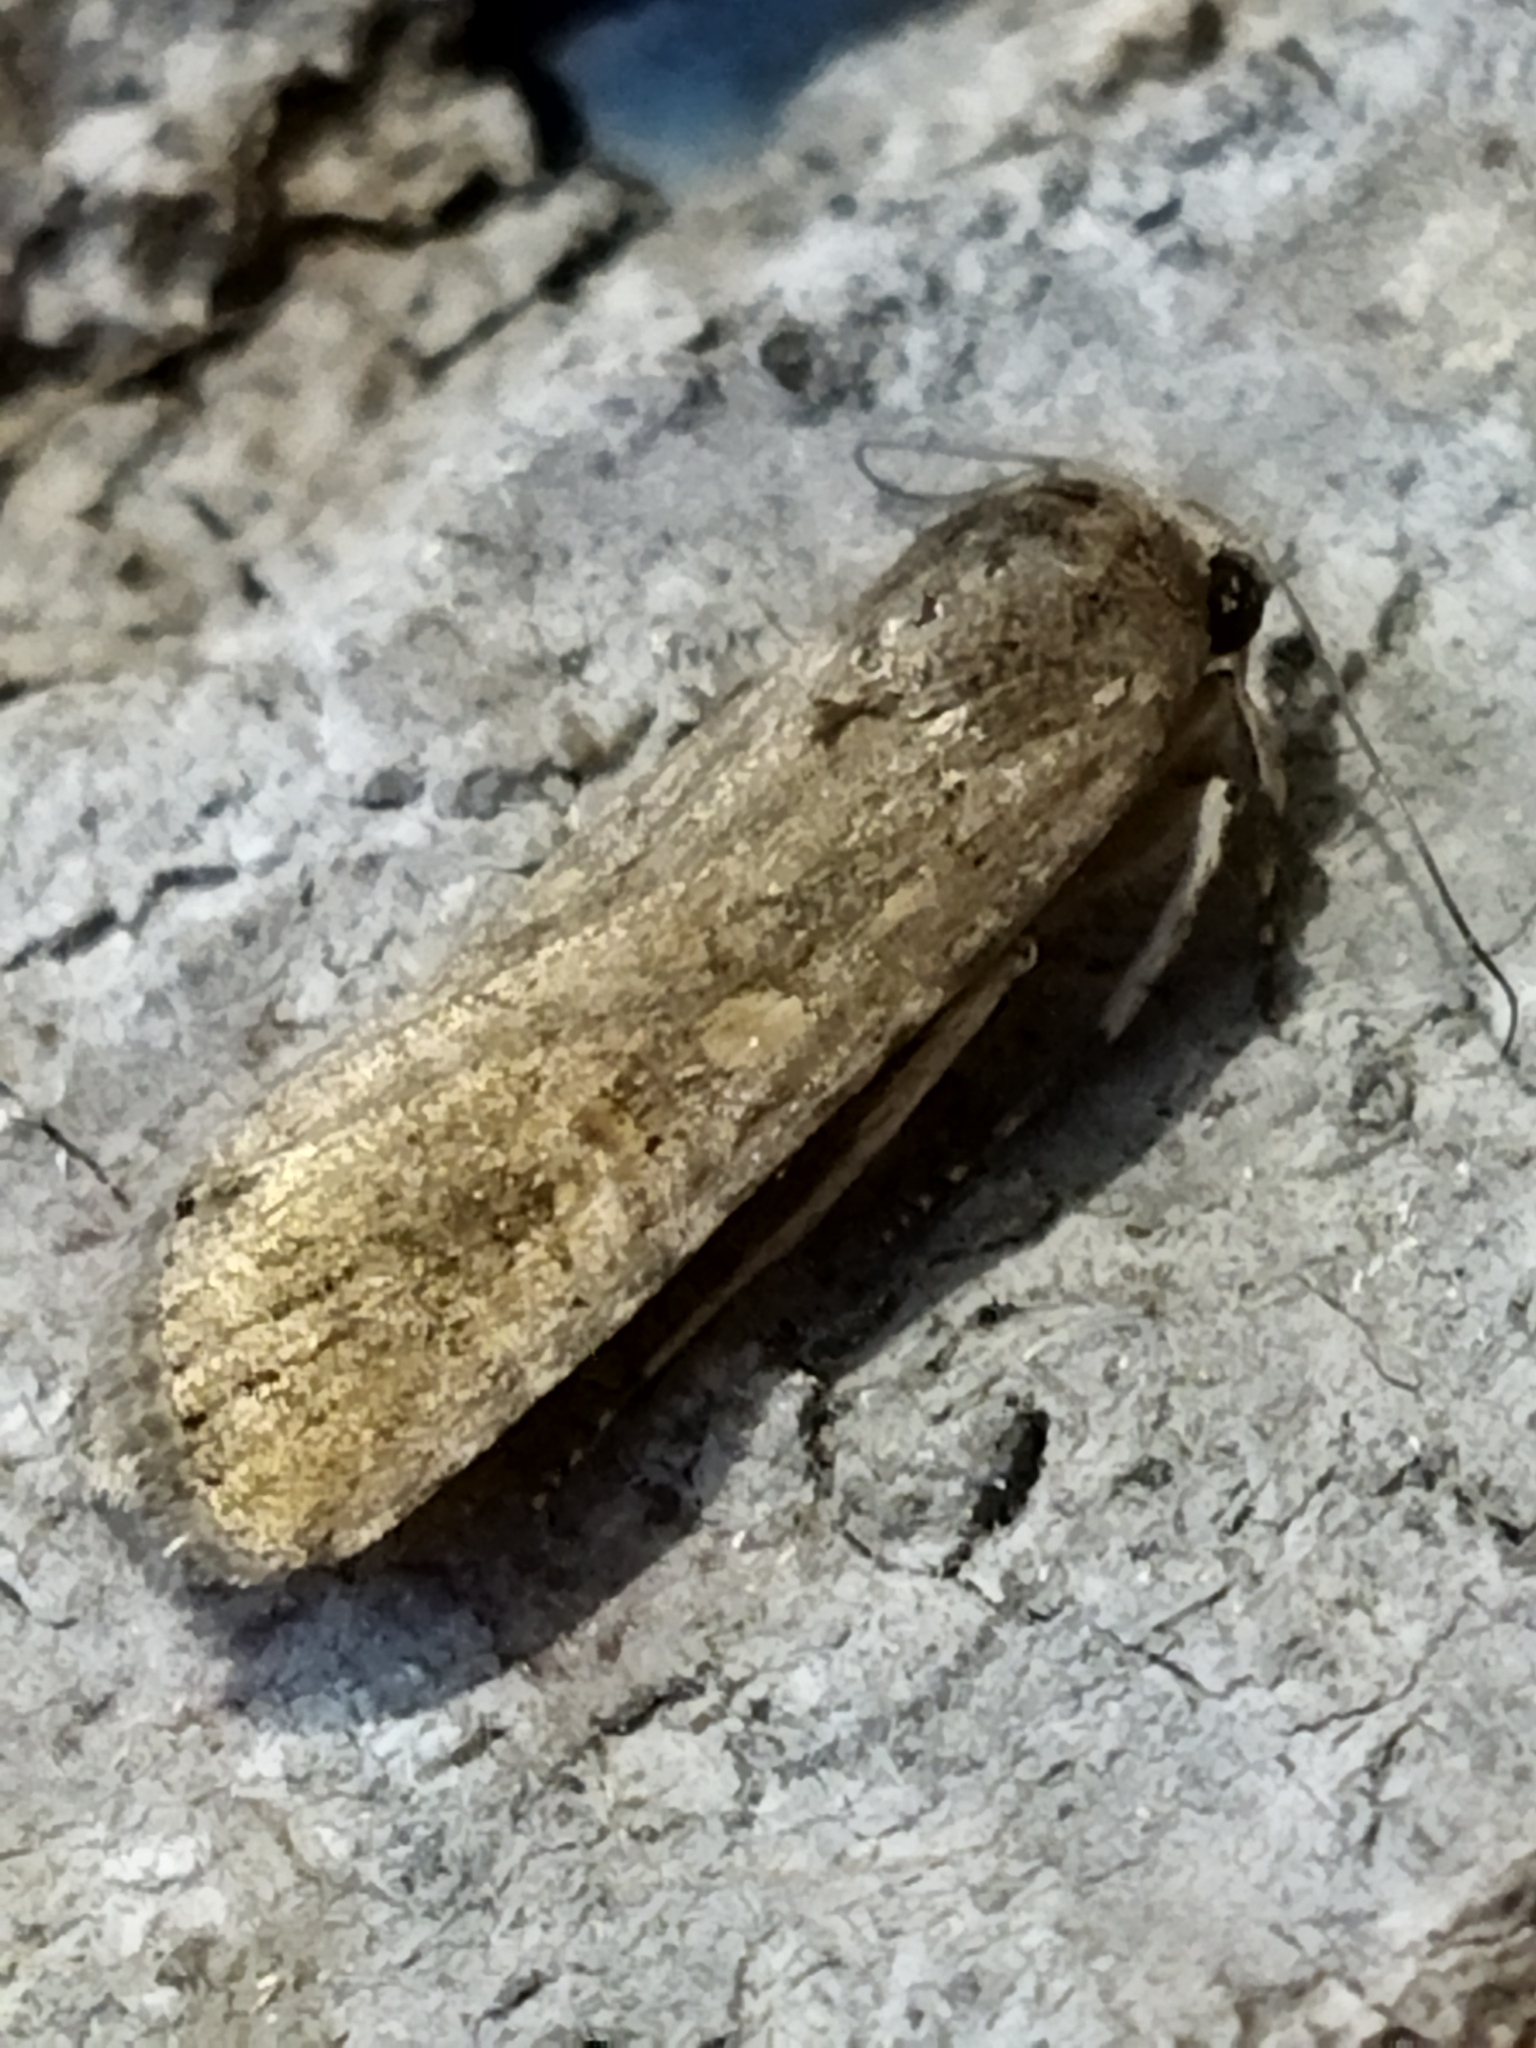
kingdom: Animalia
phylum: Arthropoda
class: Insecta
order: Lepidoptera
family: Noctuidae
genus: Spodoptera
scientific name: Spodoptera exigua
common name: Beet armyworm
